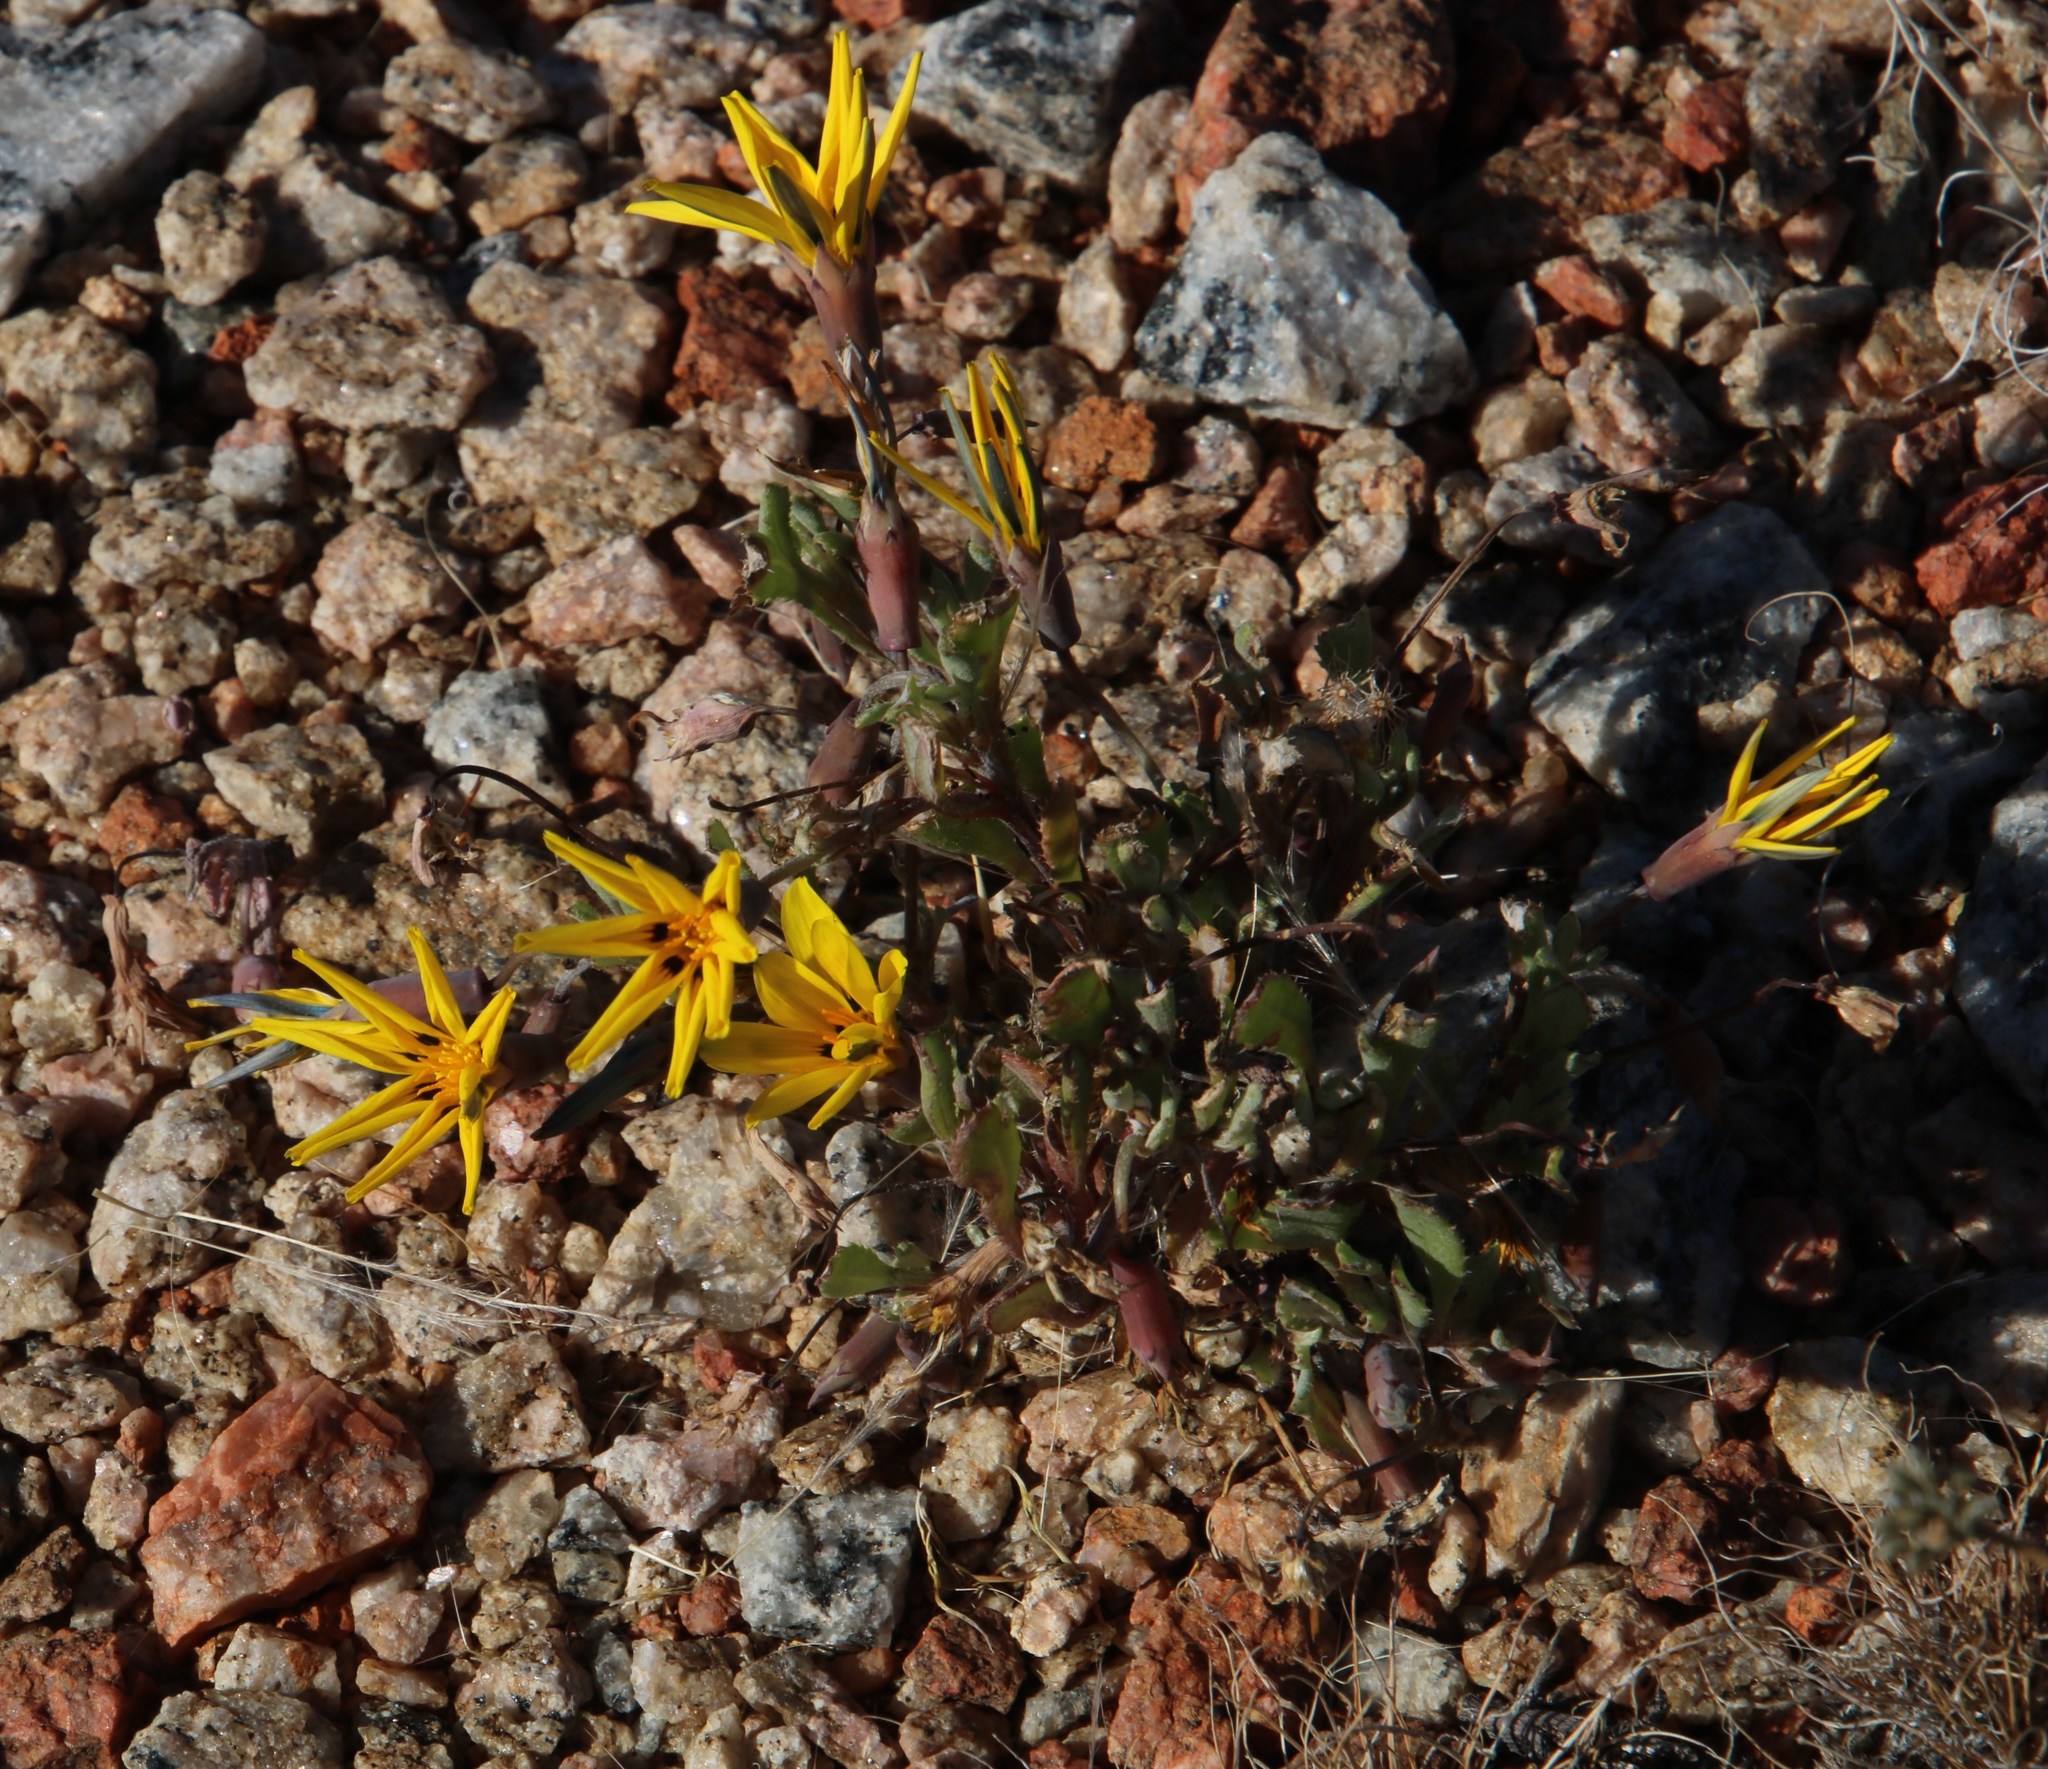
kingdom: Plantae
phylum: Tracheophyta
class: Magnoliopsida
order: Asterales
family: Asteraceae
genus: Gazania
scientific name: Gazania lichtensteinii
